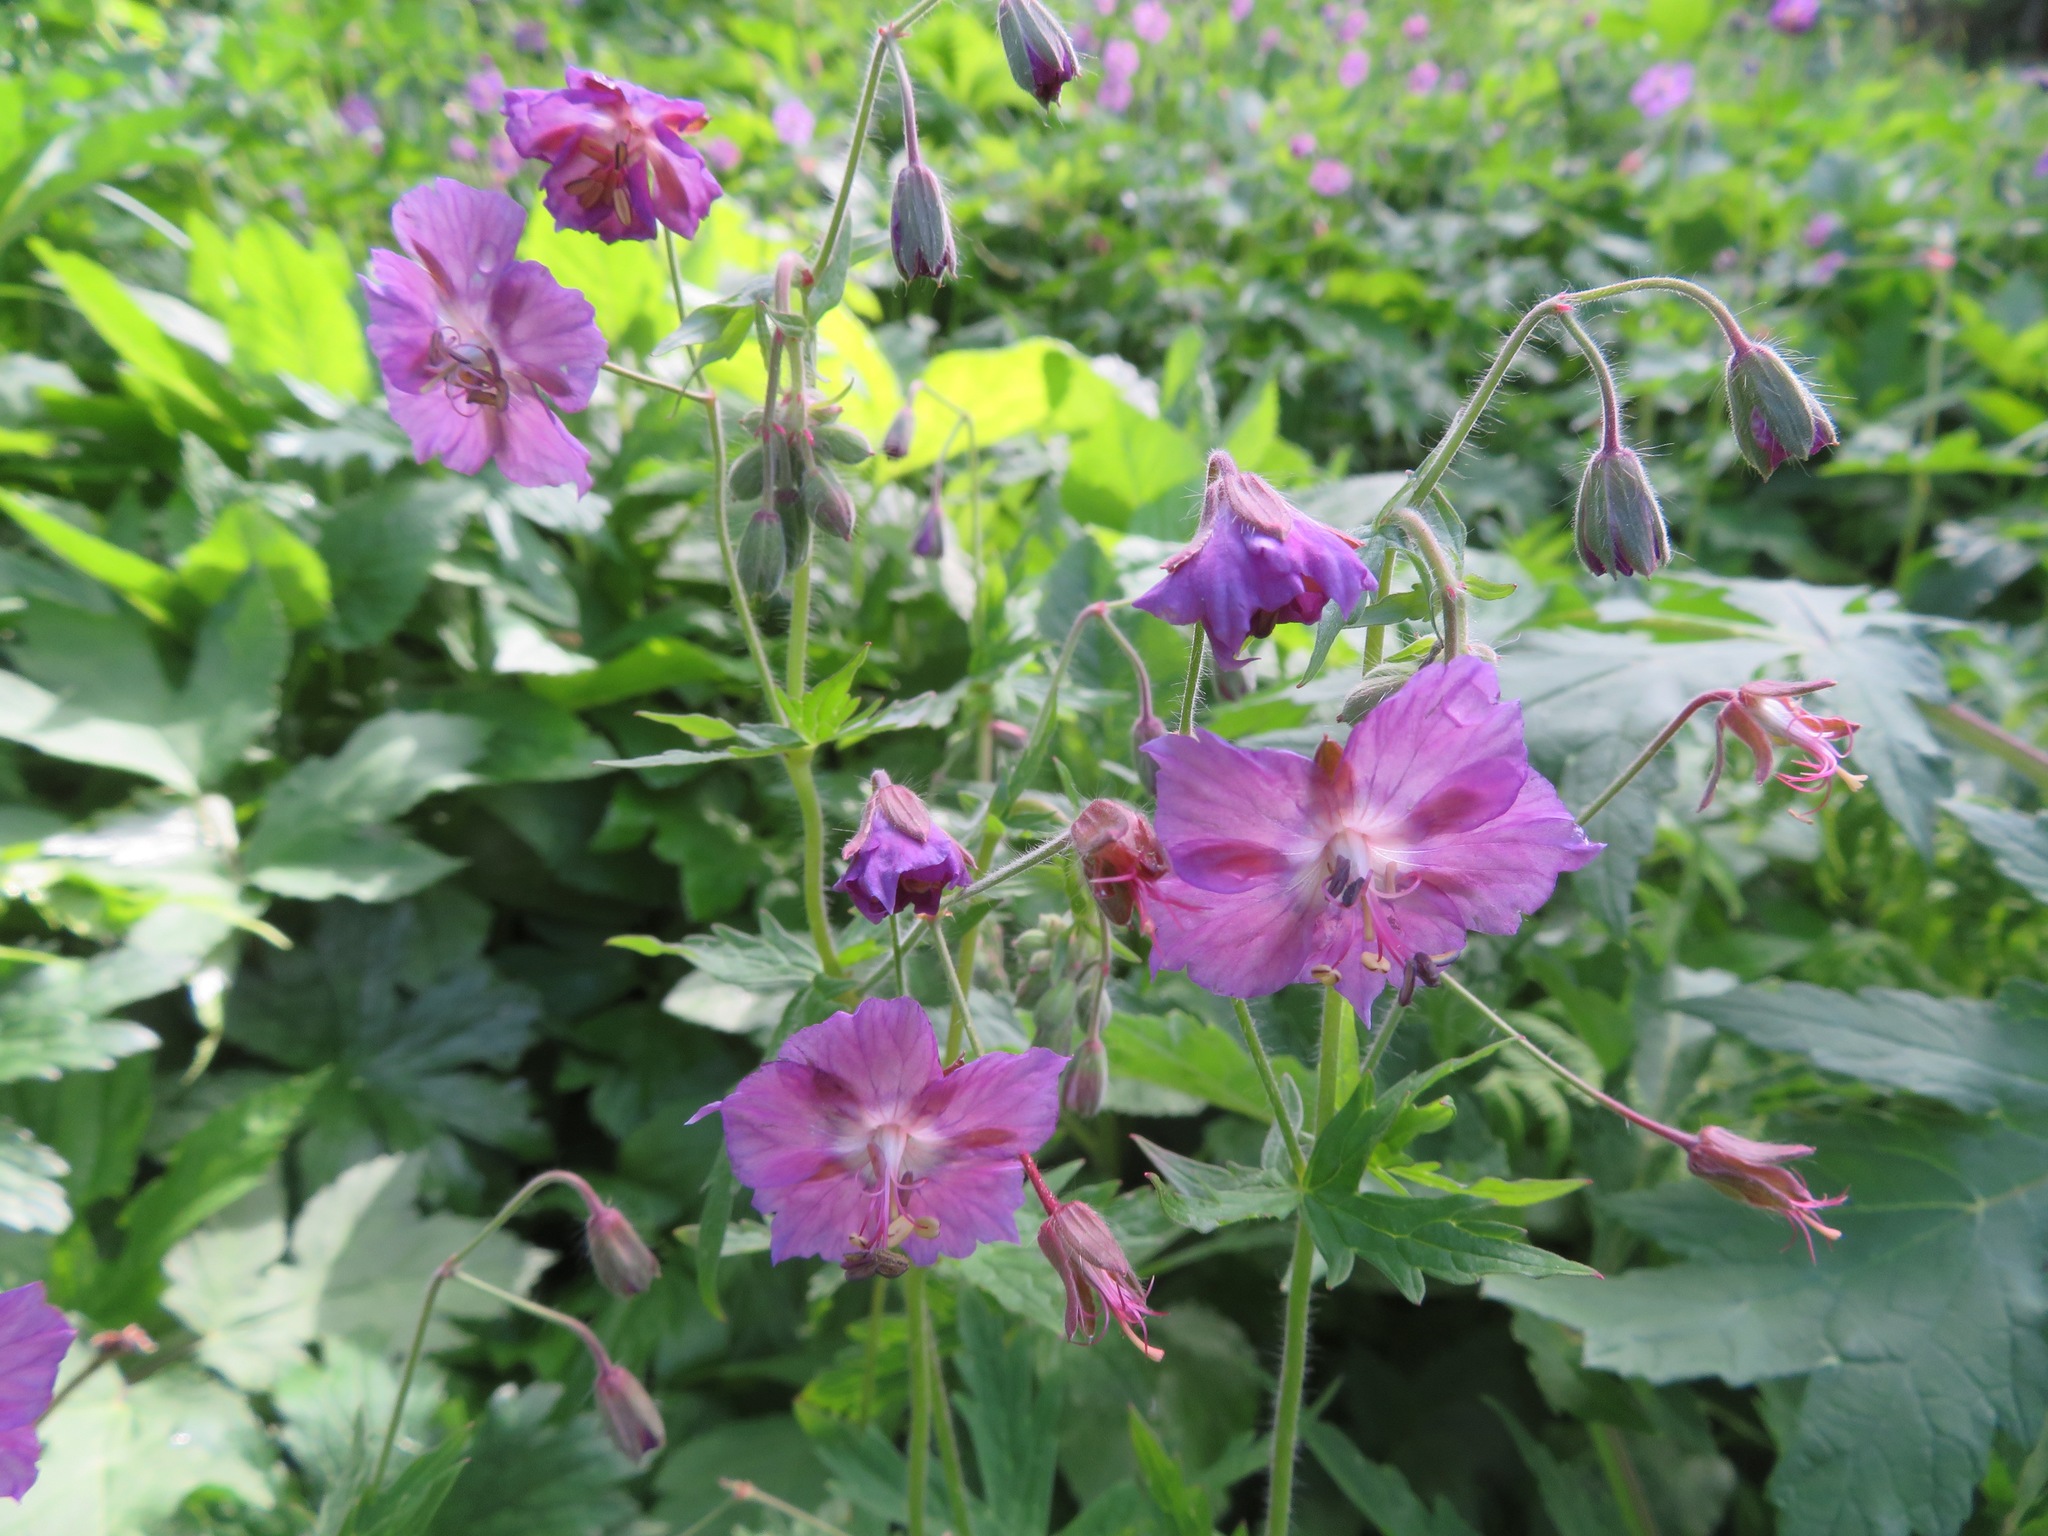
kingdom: Plantae
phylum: Tracheophyta
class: Magnoliopsida
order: Geraniales
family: Geraniaceae
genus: Geranium
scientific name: Geranium phaeum
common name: Dusky crane's-bill
